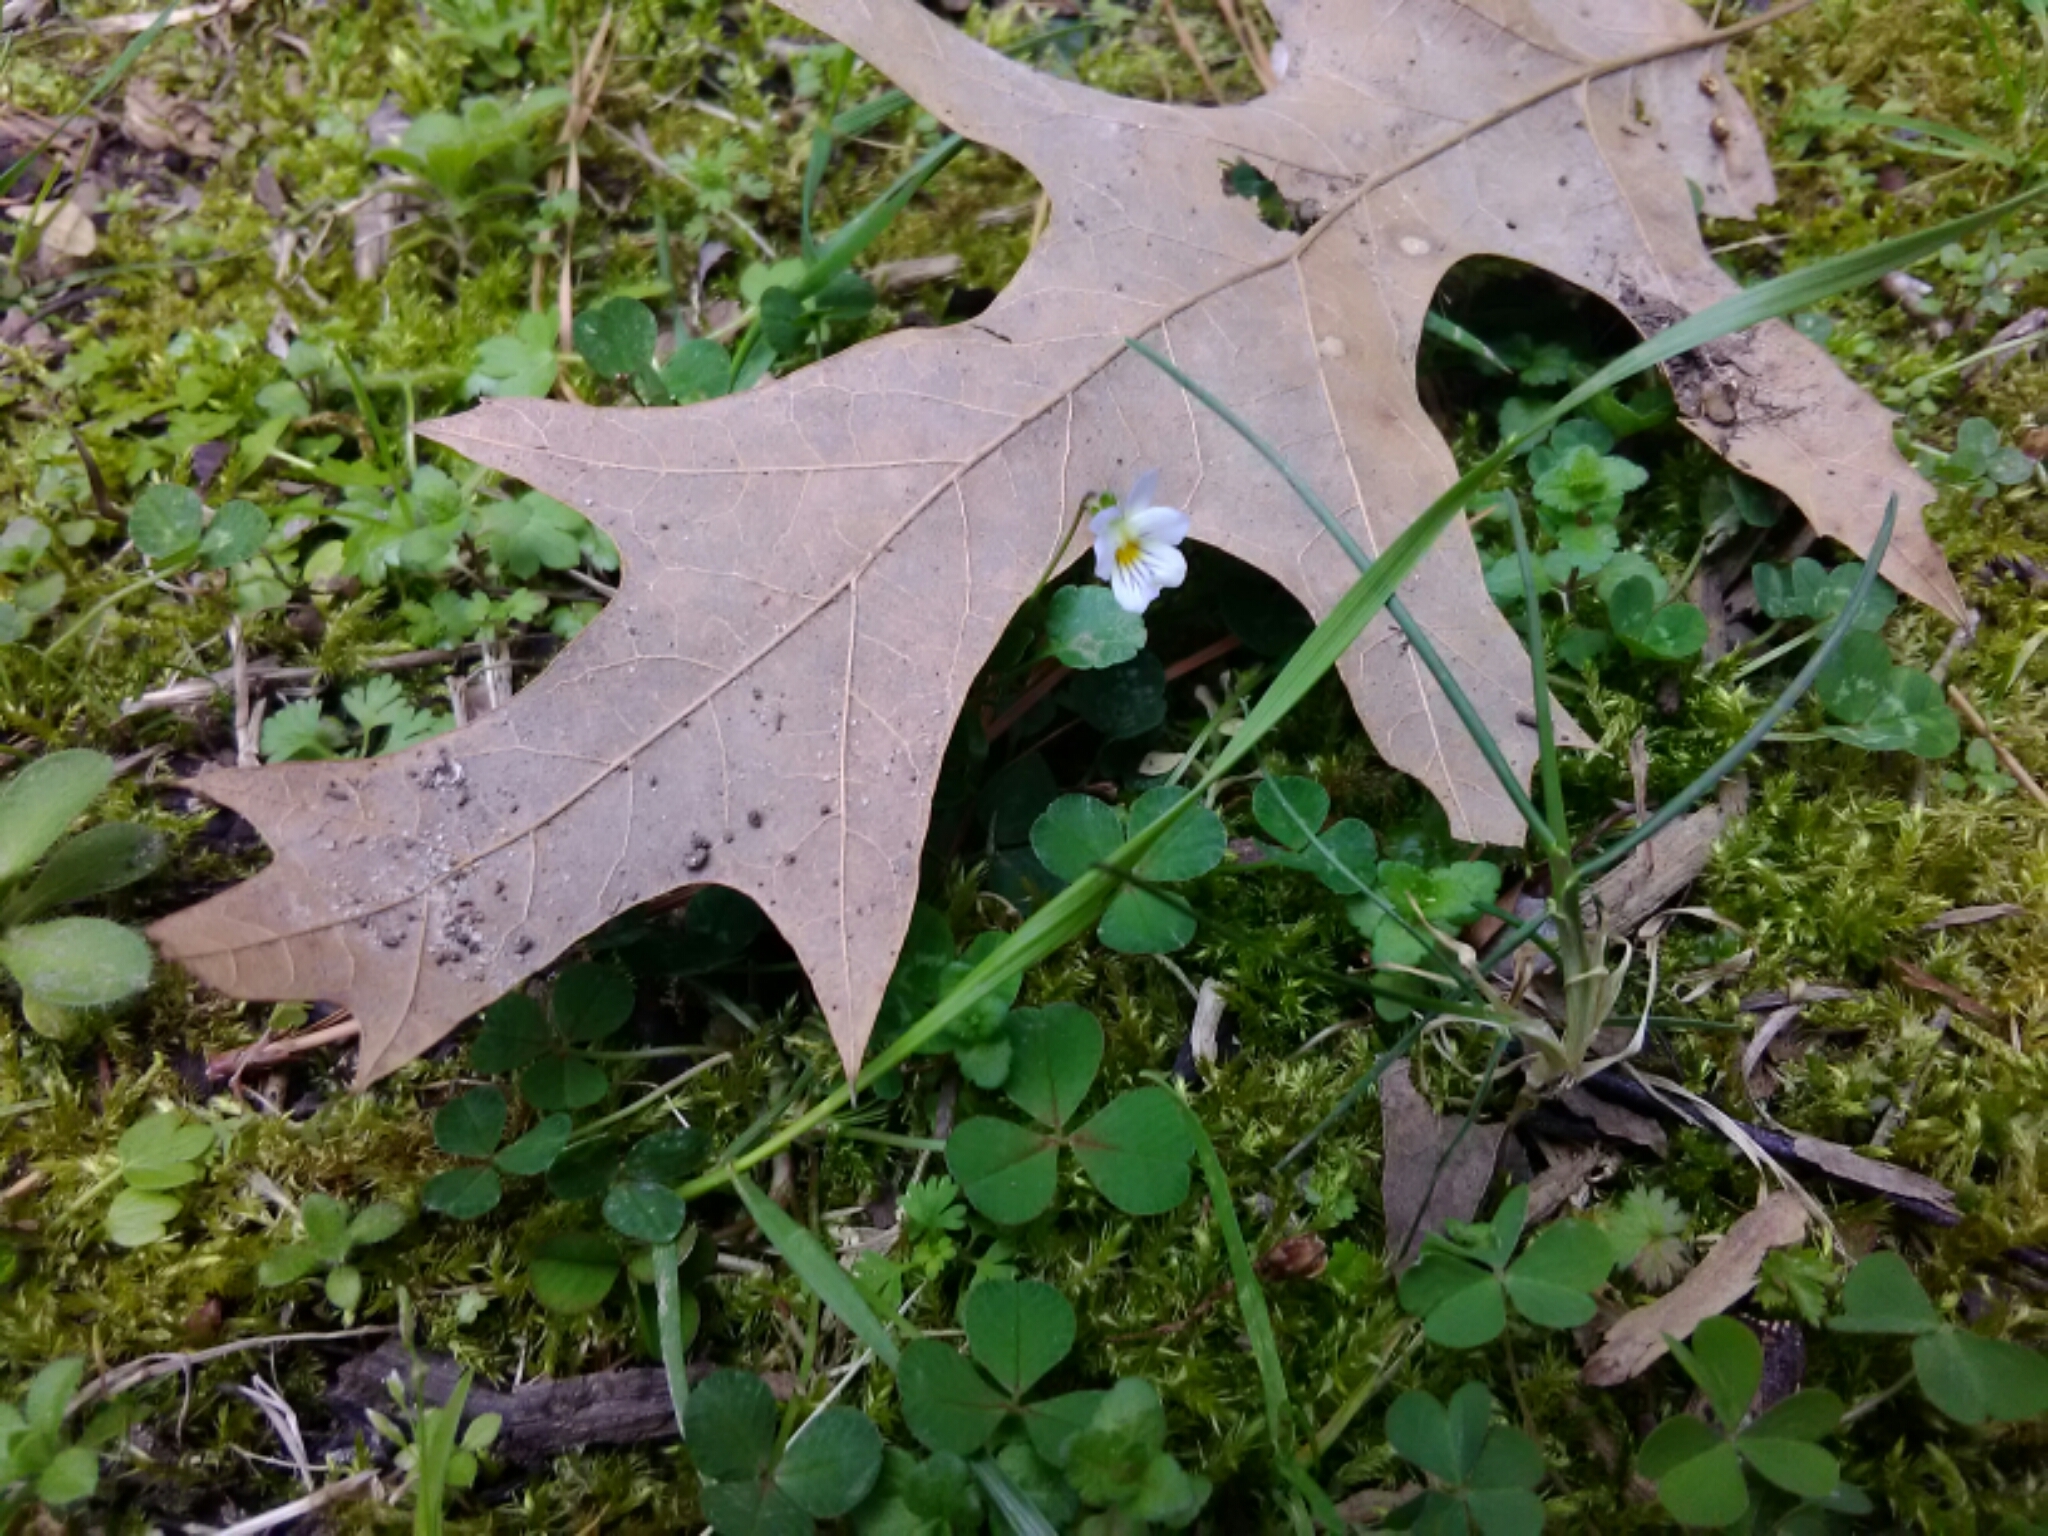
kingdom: Plantae
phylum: Tracheophyta
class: Magnoliopsida
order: Malpighiales
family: Violaceae
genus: Viola
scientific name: Viola rafinesquei
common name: American field pansy
